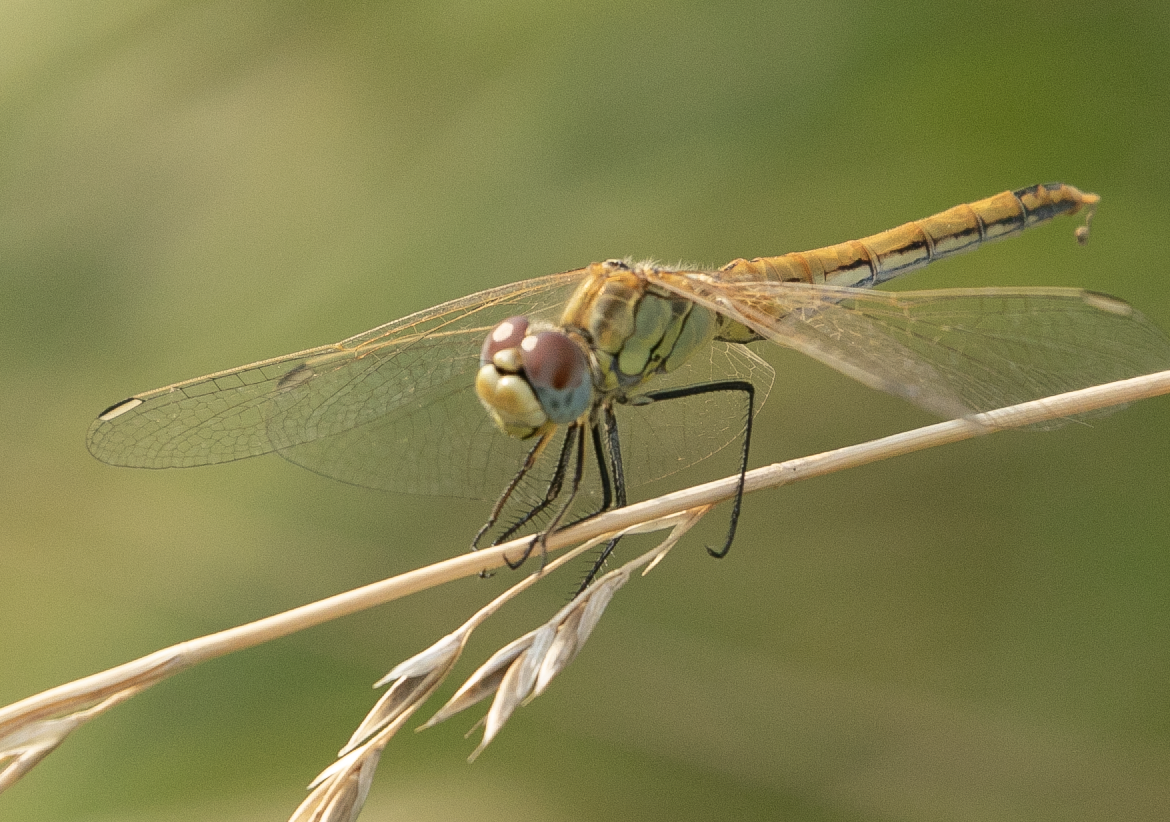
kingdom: Animalia
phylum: Arthropoda
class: Insecta
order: Odonata
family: Libellulidae
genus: Sympetrum
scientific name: Sympetrum fonscolombii
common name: Red-veined darter
